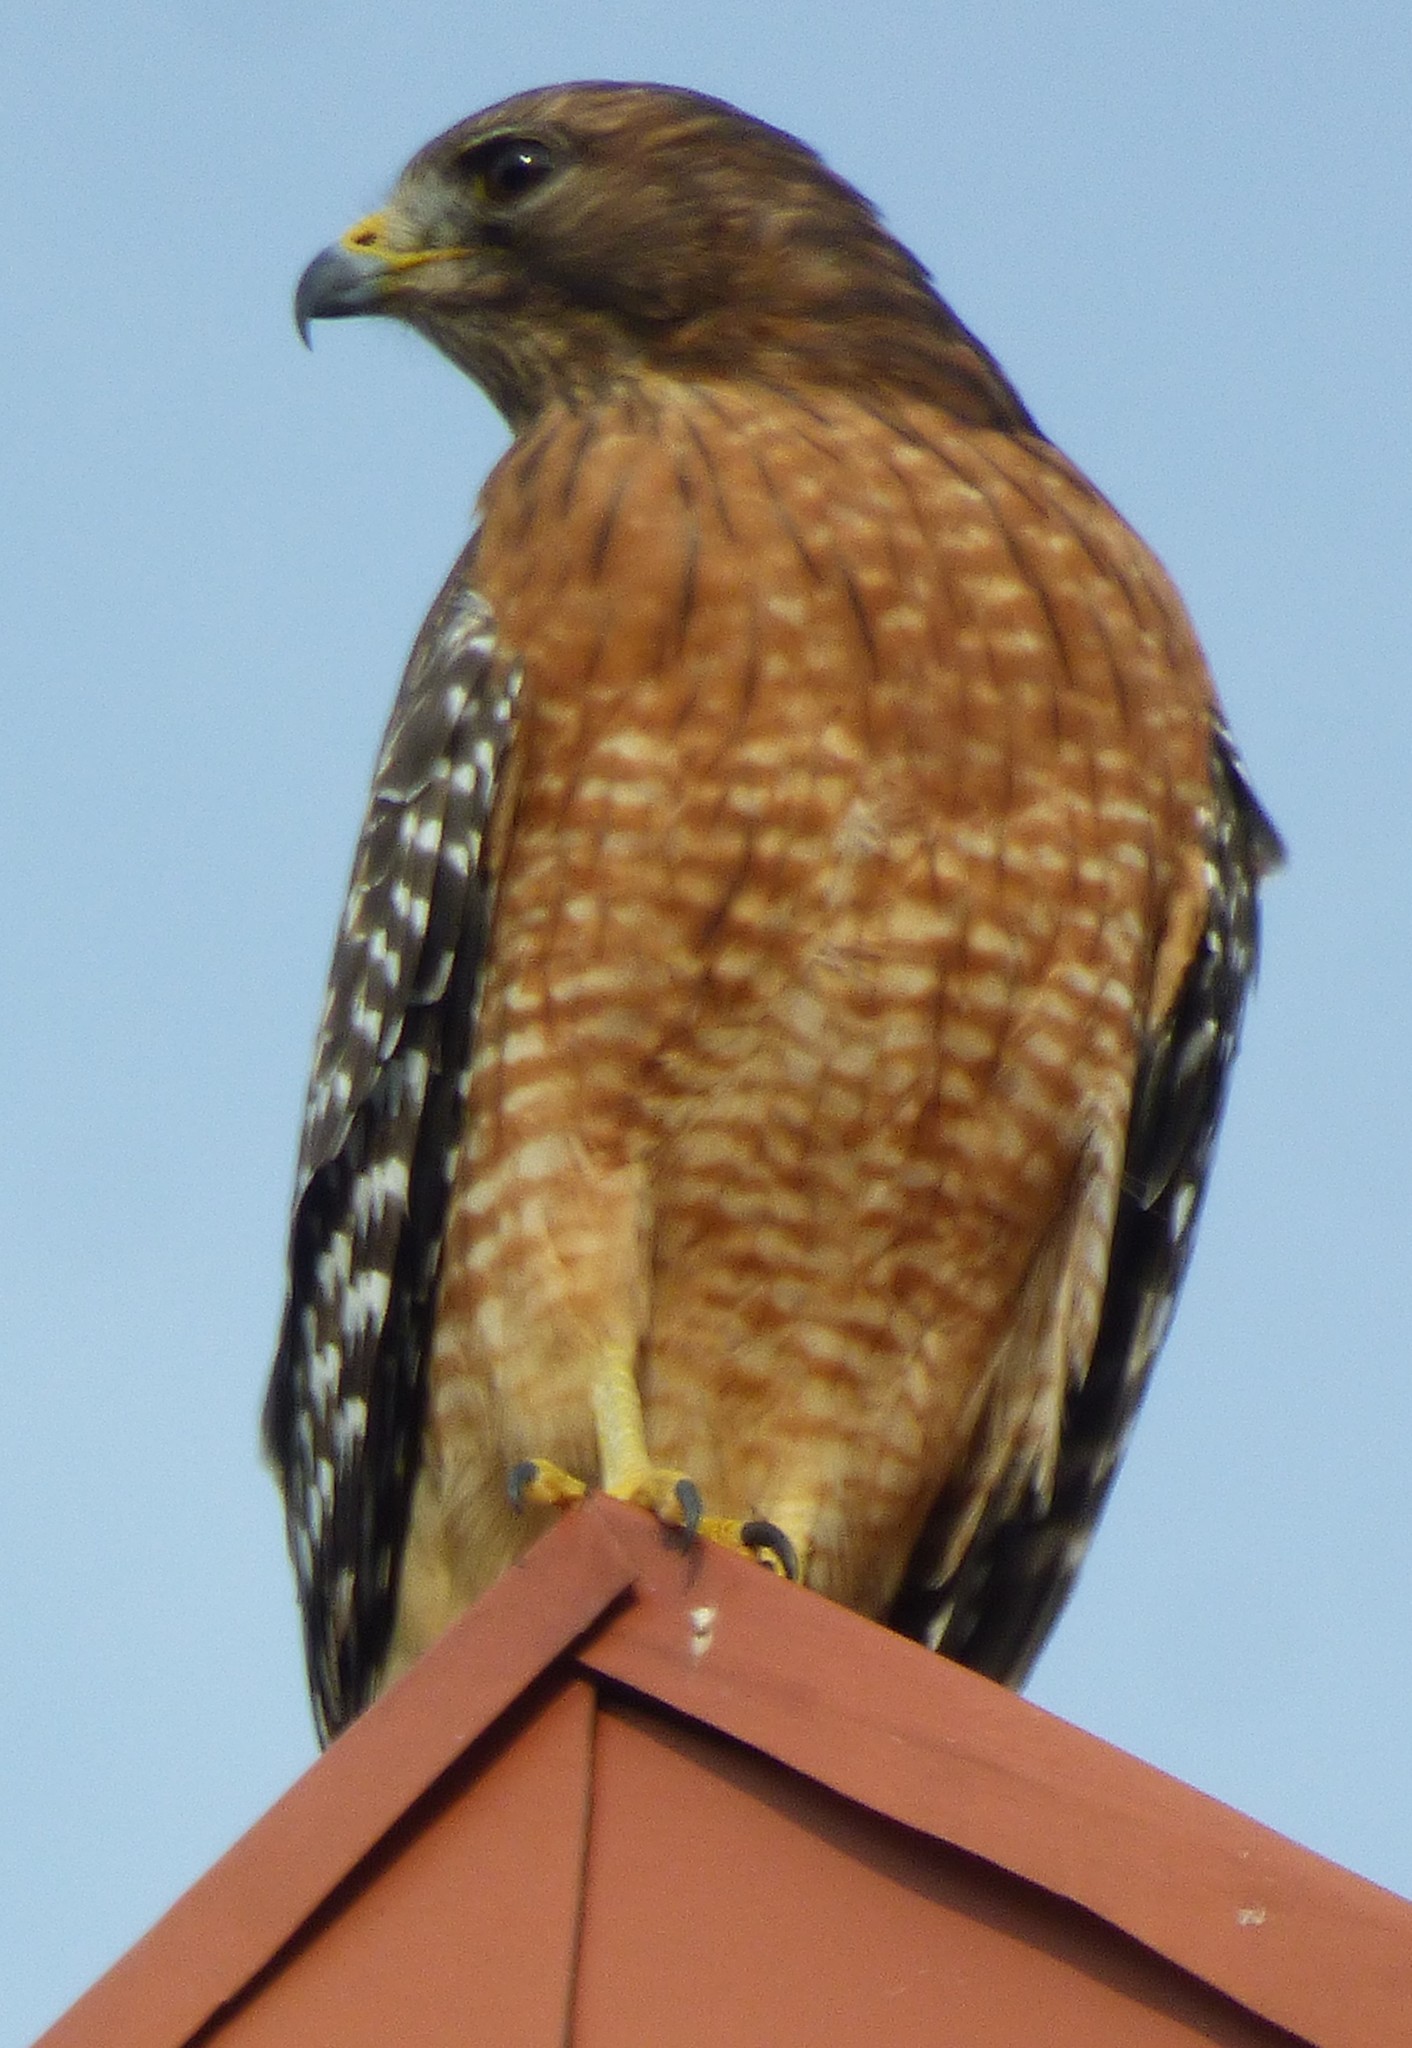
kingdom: Animalia
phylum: Chordata
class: Aves
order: Accipitriformes
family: Accipitridae
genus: Buteo
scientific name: Buteo lineatus
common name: Red-shouldered hawk
